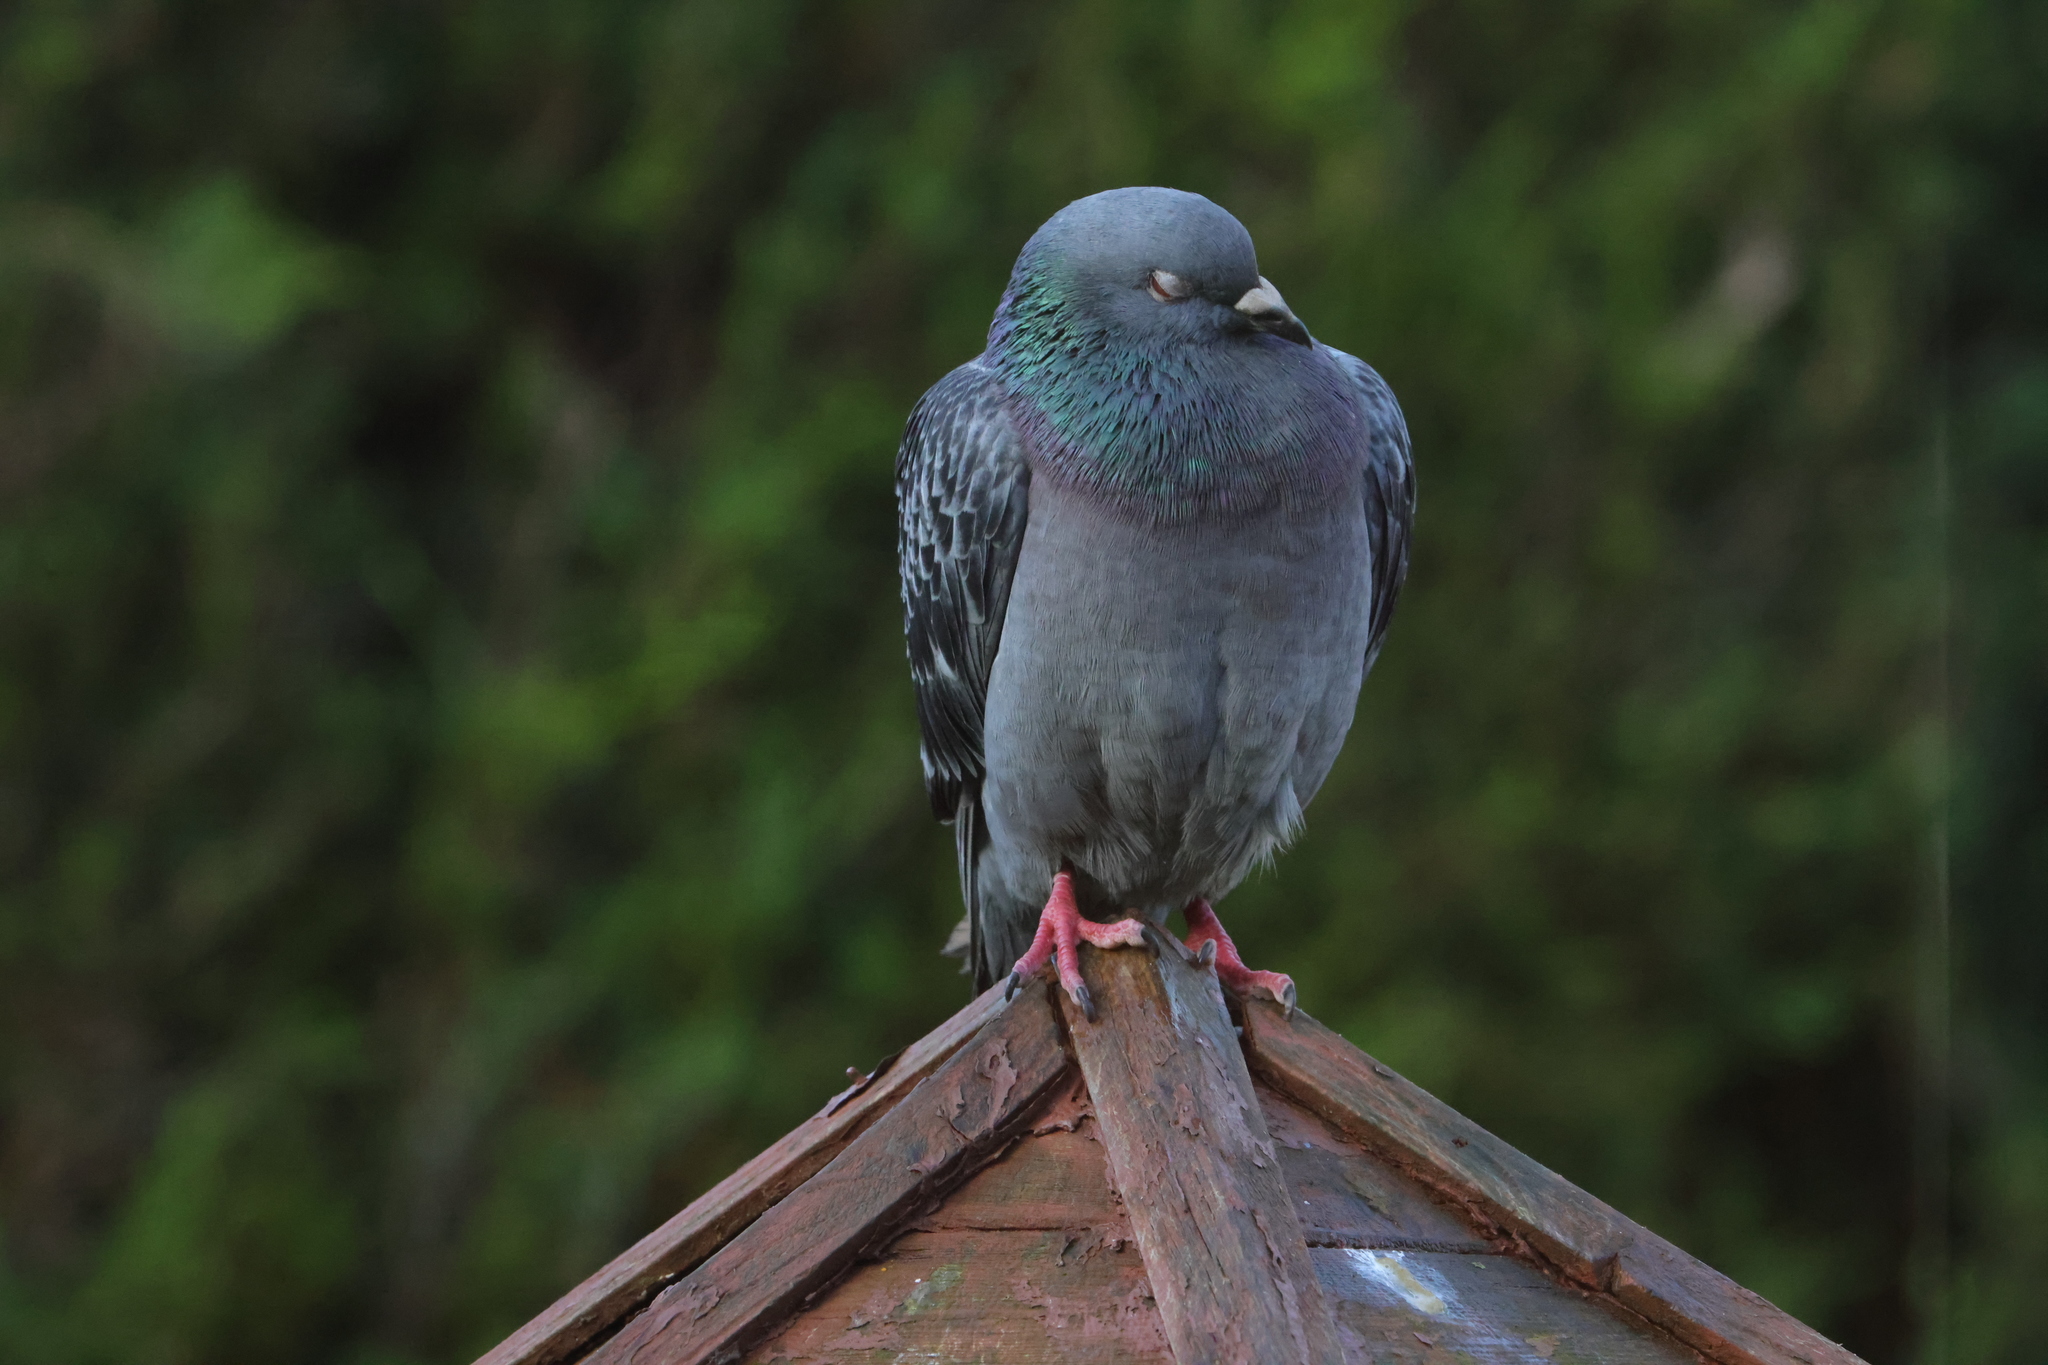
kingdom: Animalia
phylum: Chordata
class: Aves
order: Columbiformes
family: Columbidae
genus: Columba
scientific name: Columba livia
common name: Rock pigeon
